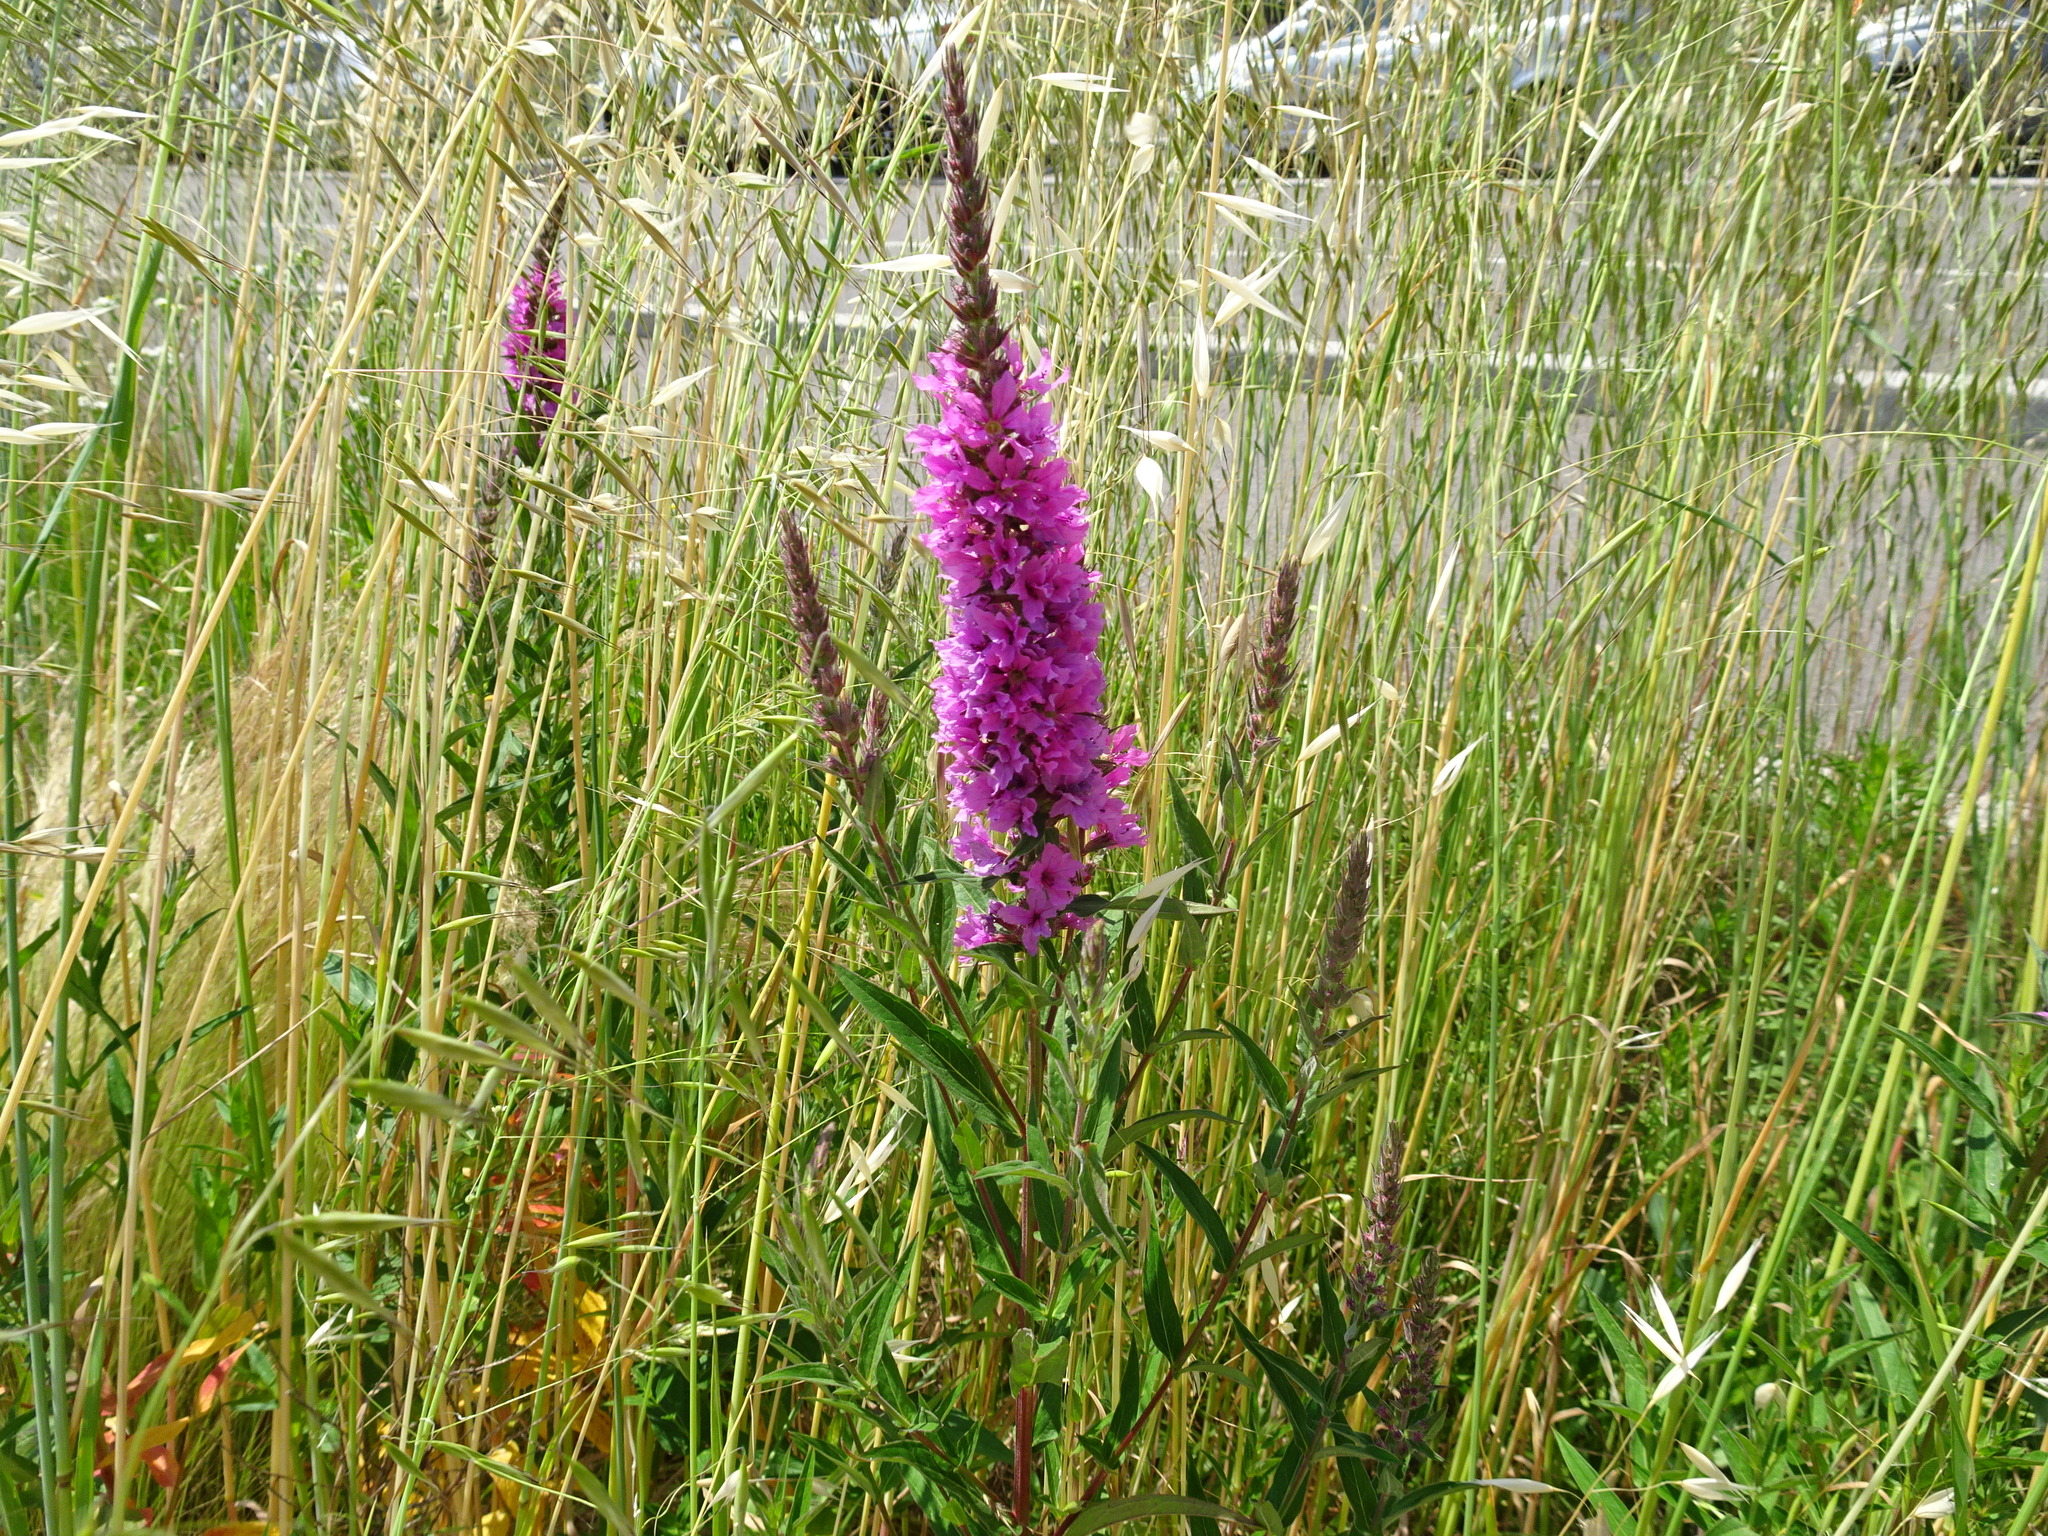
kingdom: Plantae
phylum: Tracheophyta
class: Magnoliopsida
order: Myrtales
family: Lythraceae
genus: Lythrum
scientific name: Lythrum salicaria
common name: Purple loosestrife
